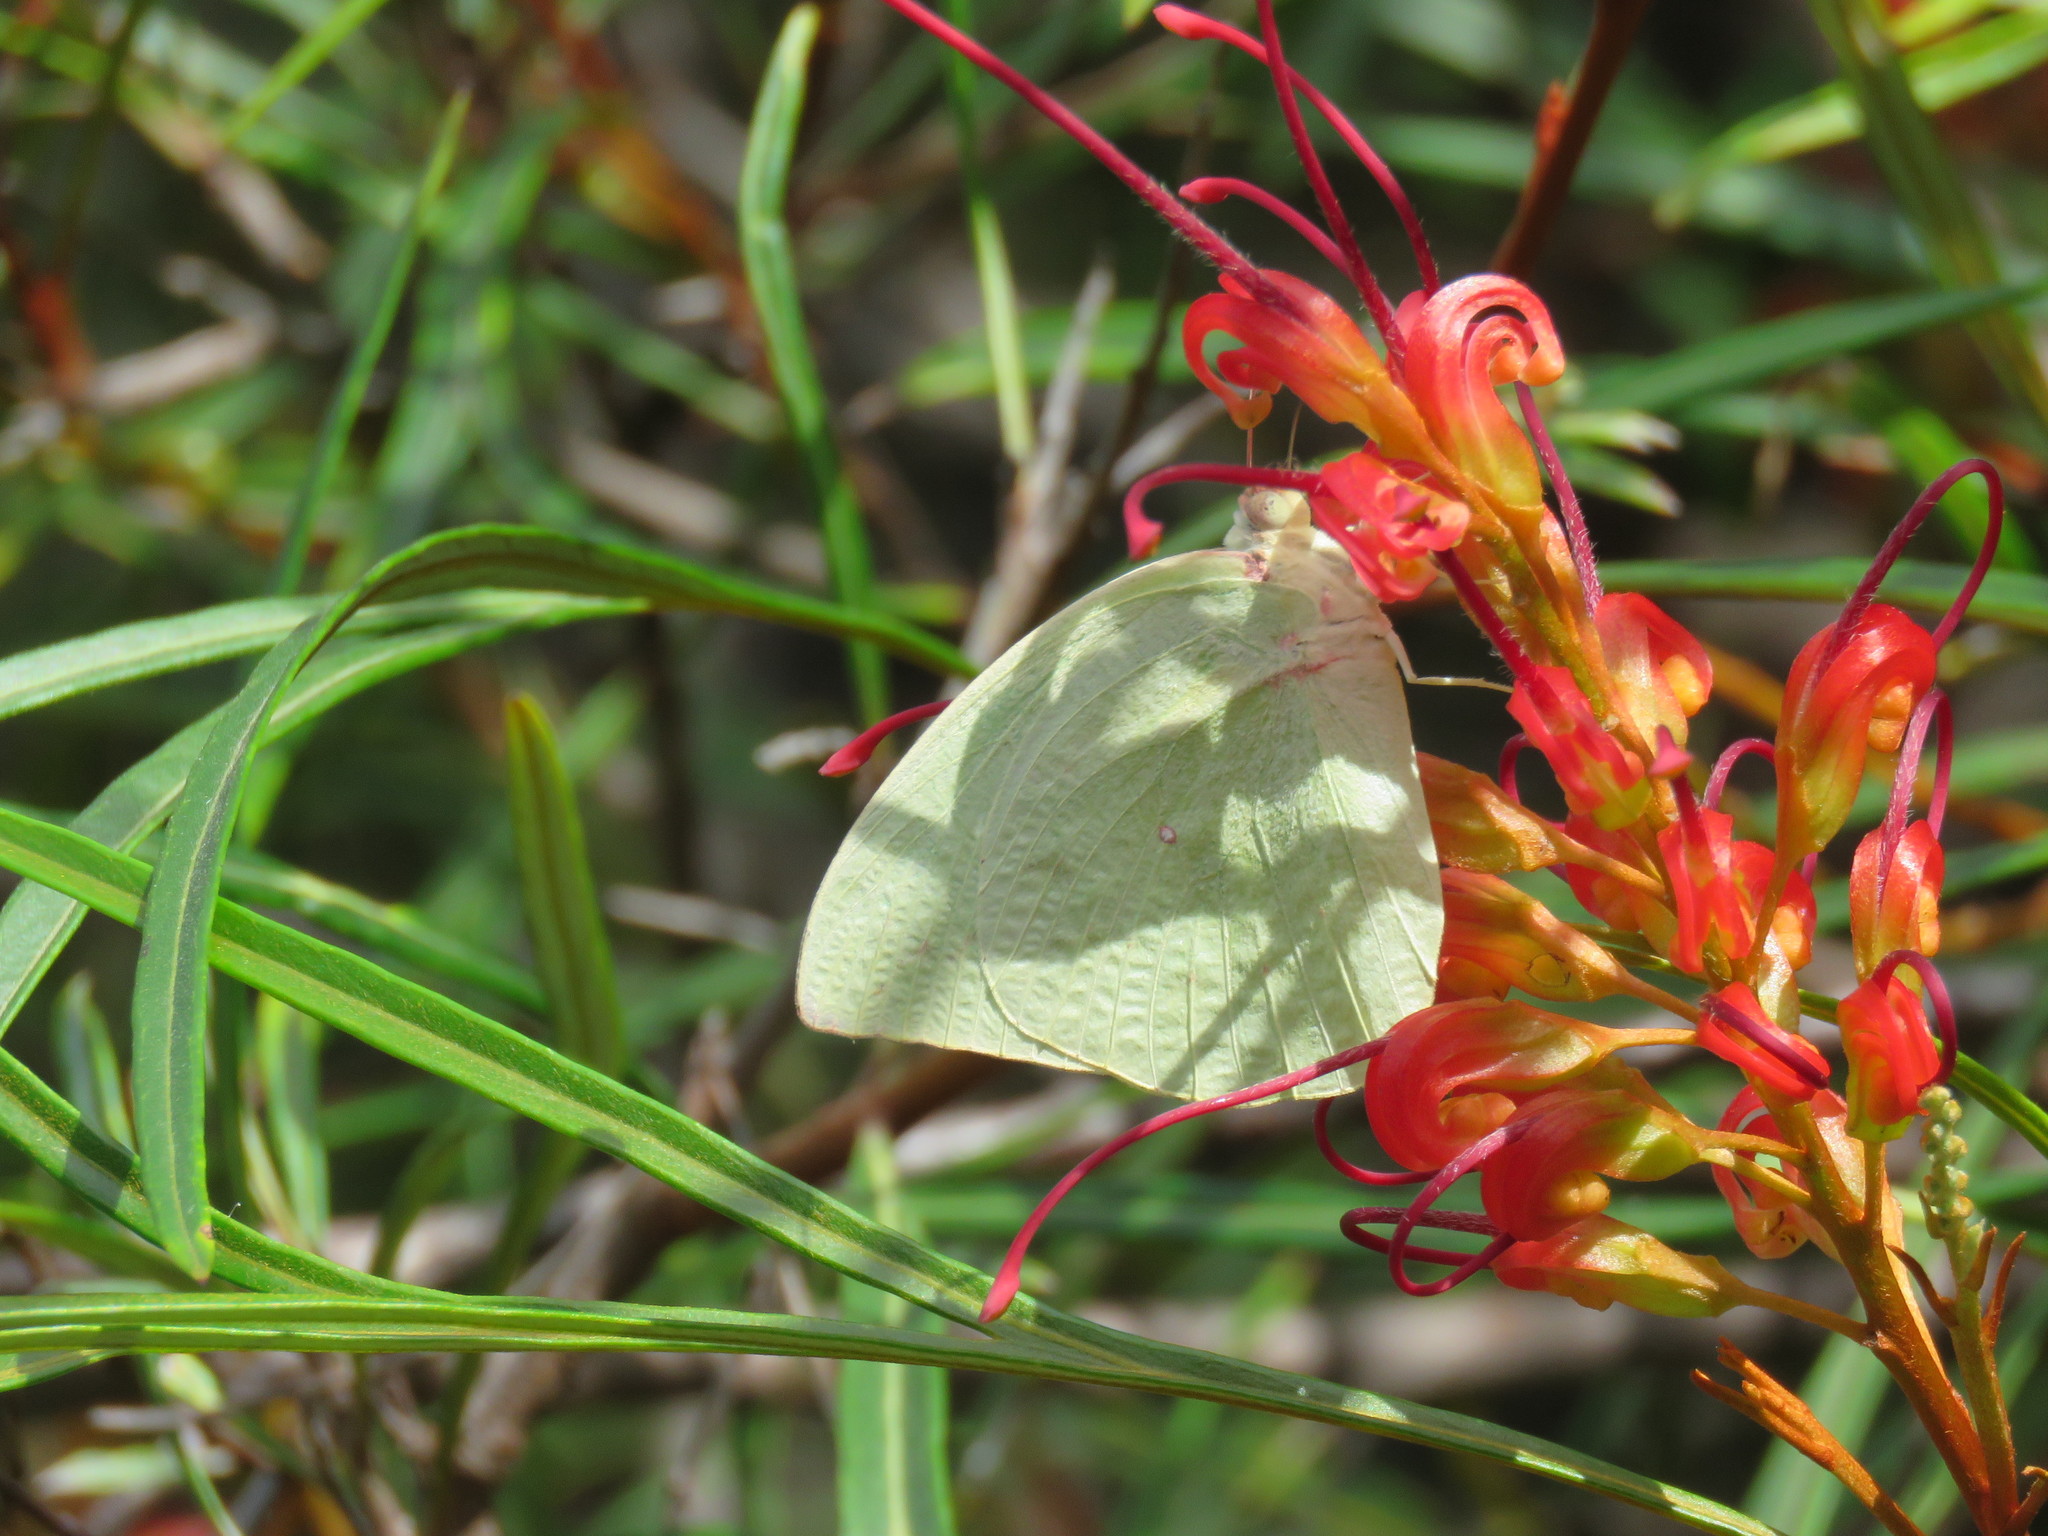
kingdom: Animalia
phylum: Arthropoda
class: Insecta
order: Lepidoptera
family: Pieridae
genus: Catopsilia
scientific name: Catopsilia pomona
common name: Common emigrant
